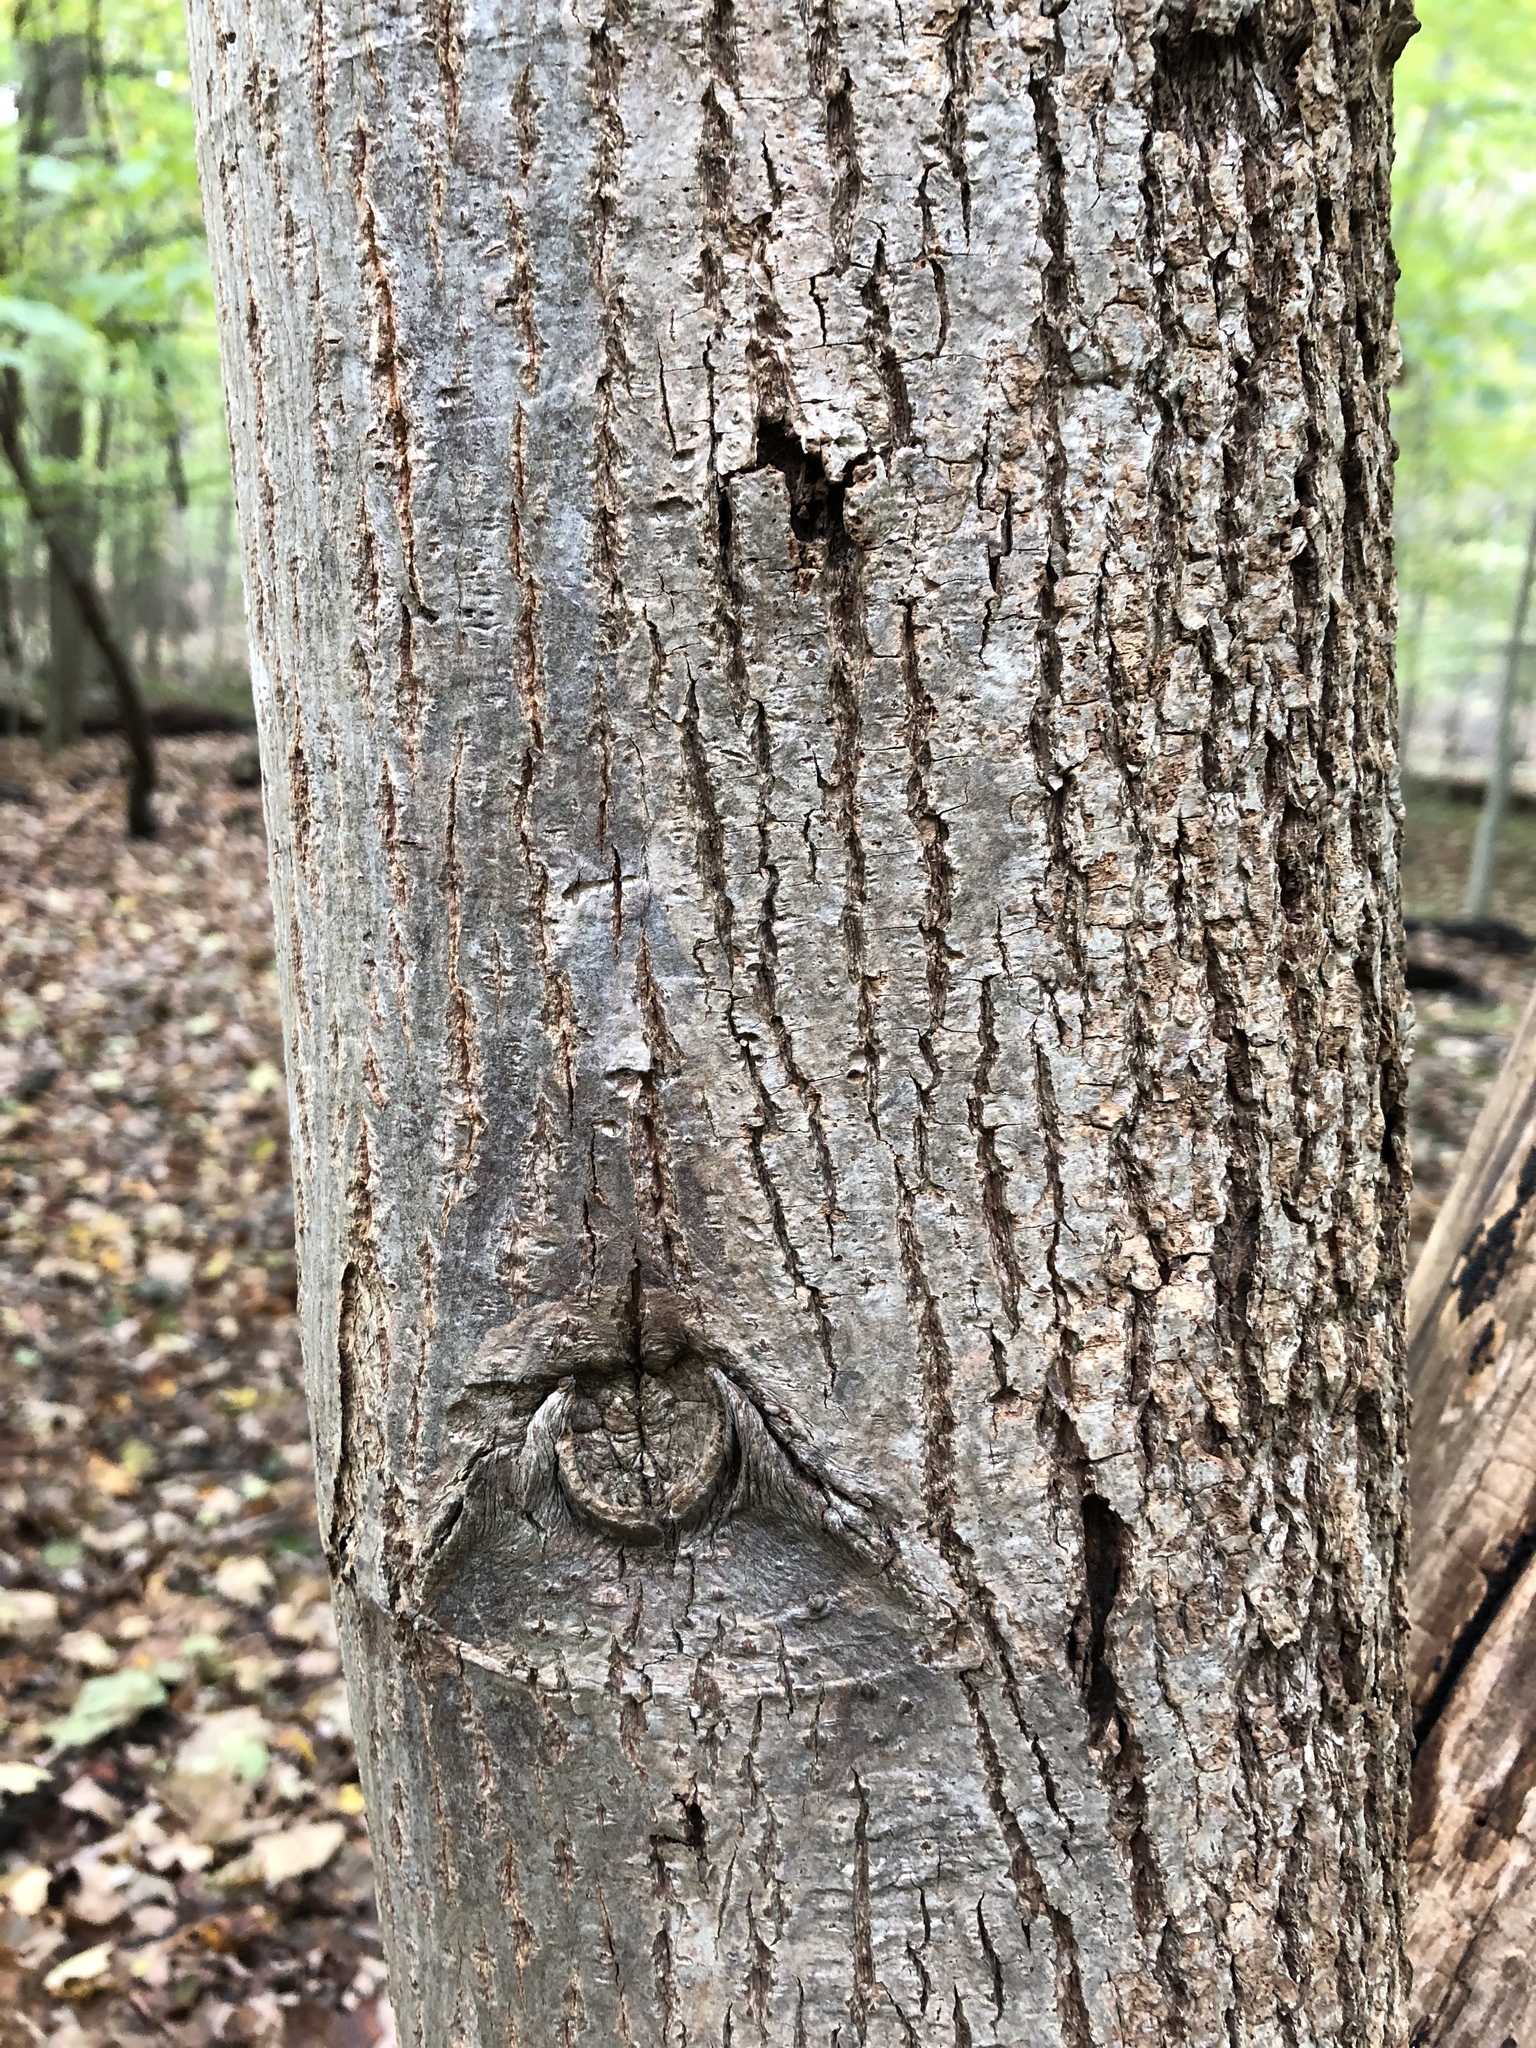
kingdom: Plantae
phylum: Tracheophyta
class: Magnoliopsida
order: Malvales
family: Malvaceae
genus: Tilia
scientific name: Tilia americana
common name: Basswood
